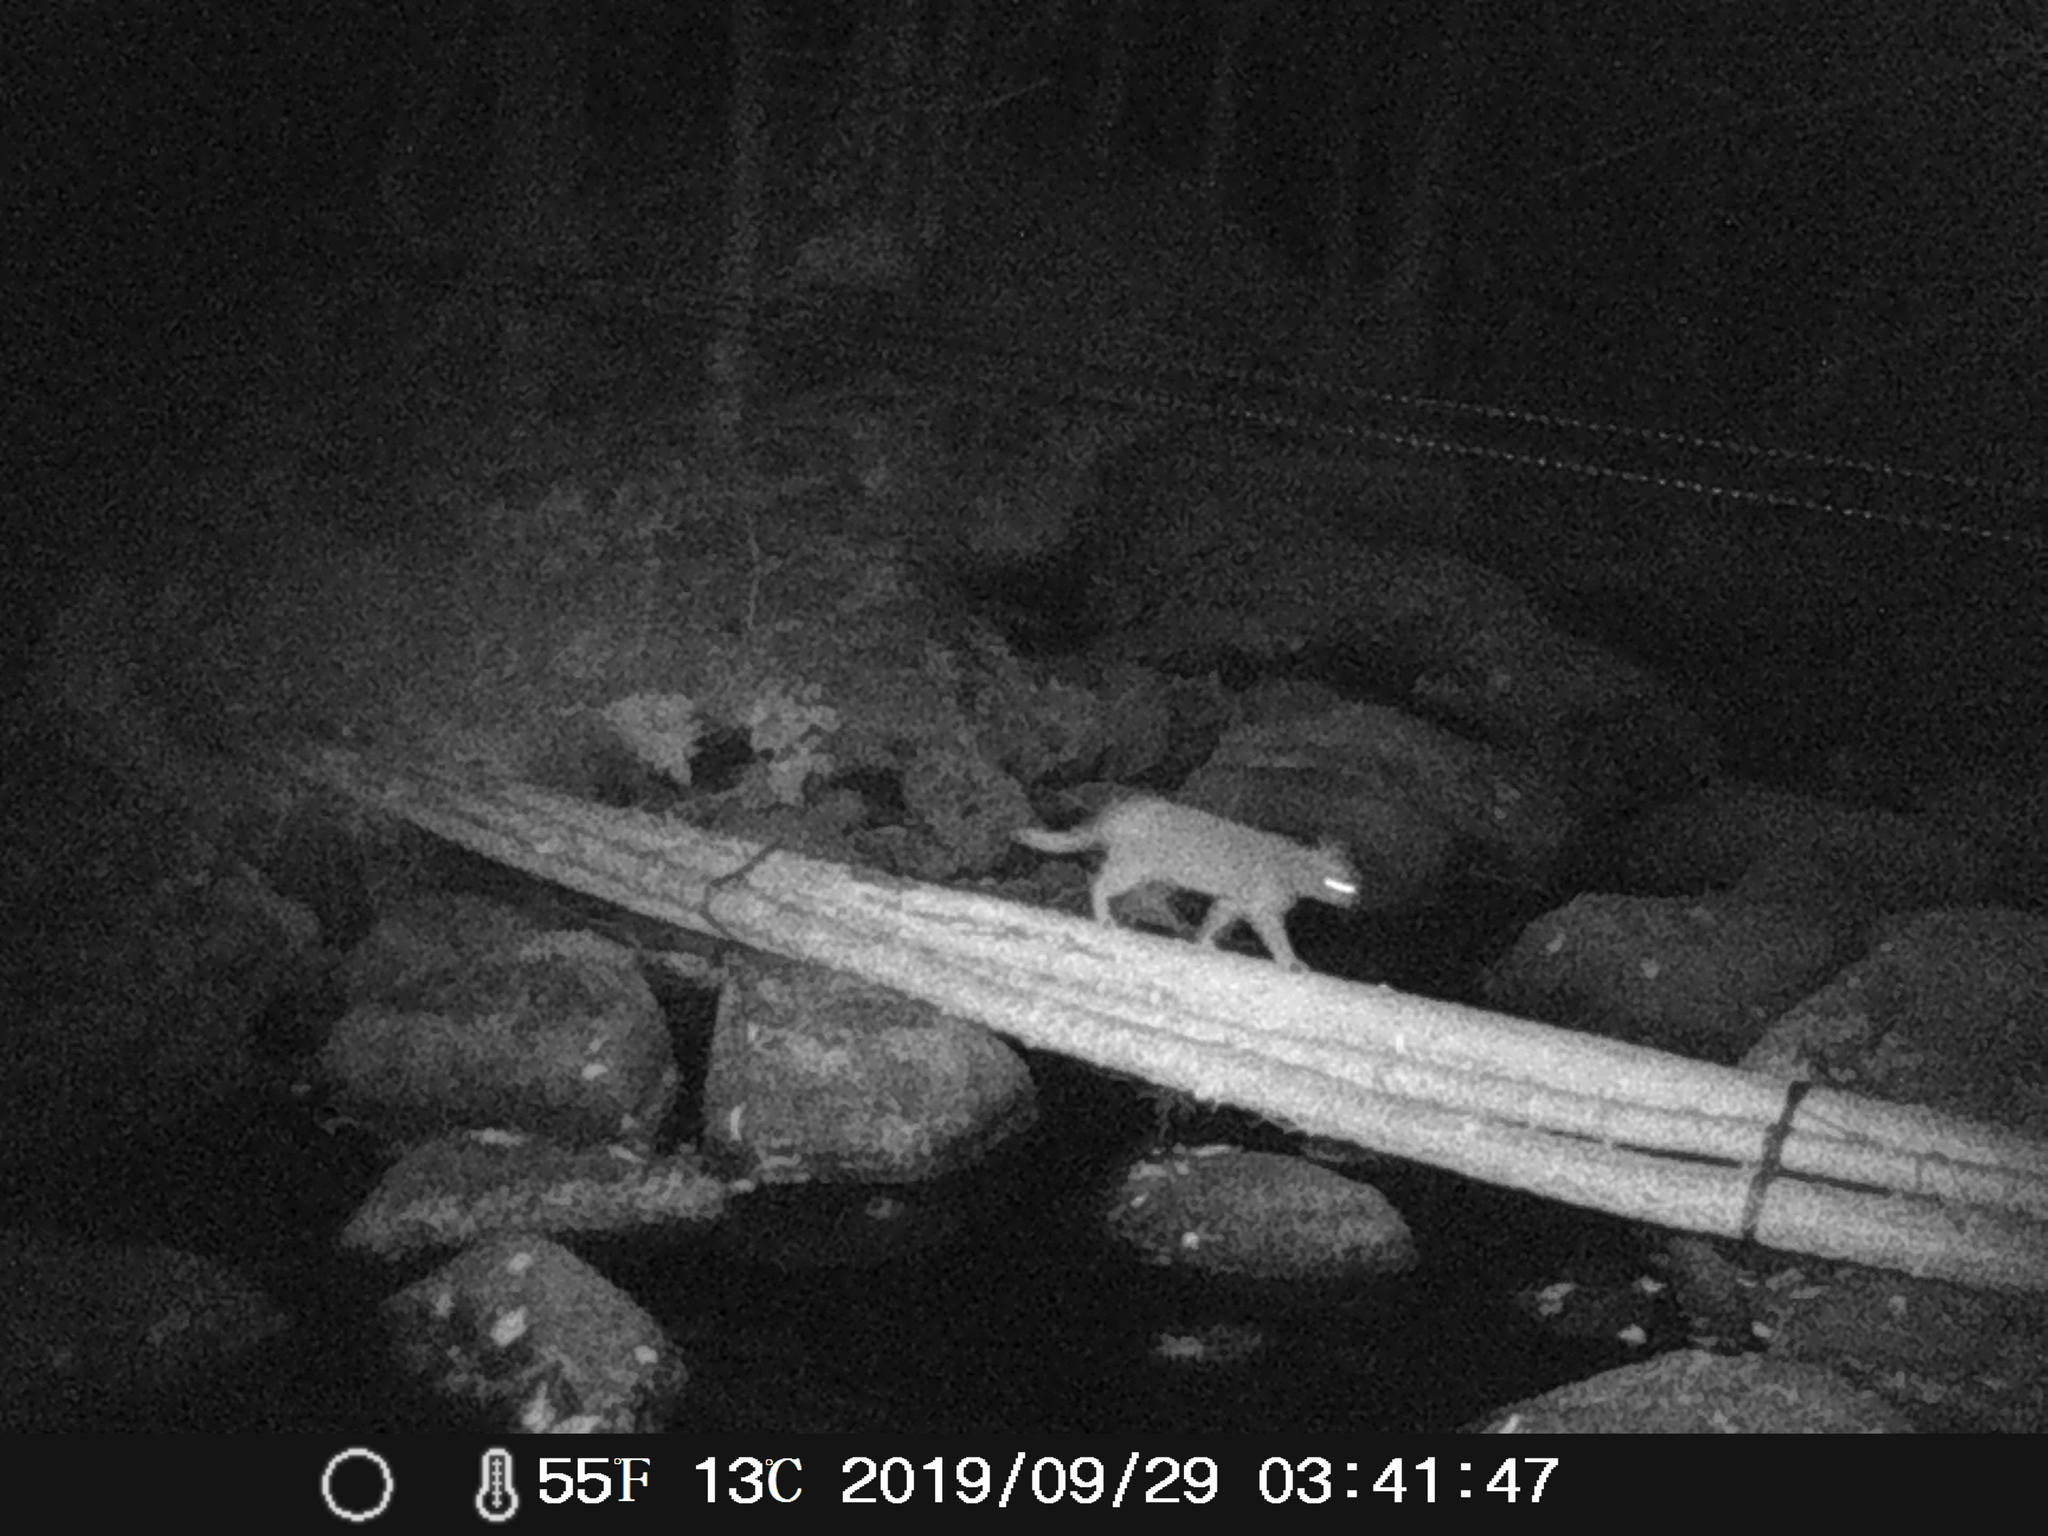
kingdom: Animalia
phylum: Chordata
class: Mammalia
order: Carnivora
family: Felidae
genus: Felis
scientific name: Felis catus
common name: Domestic cat
